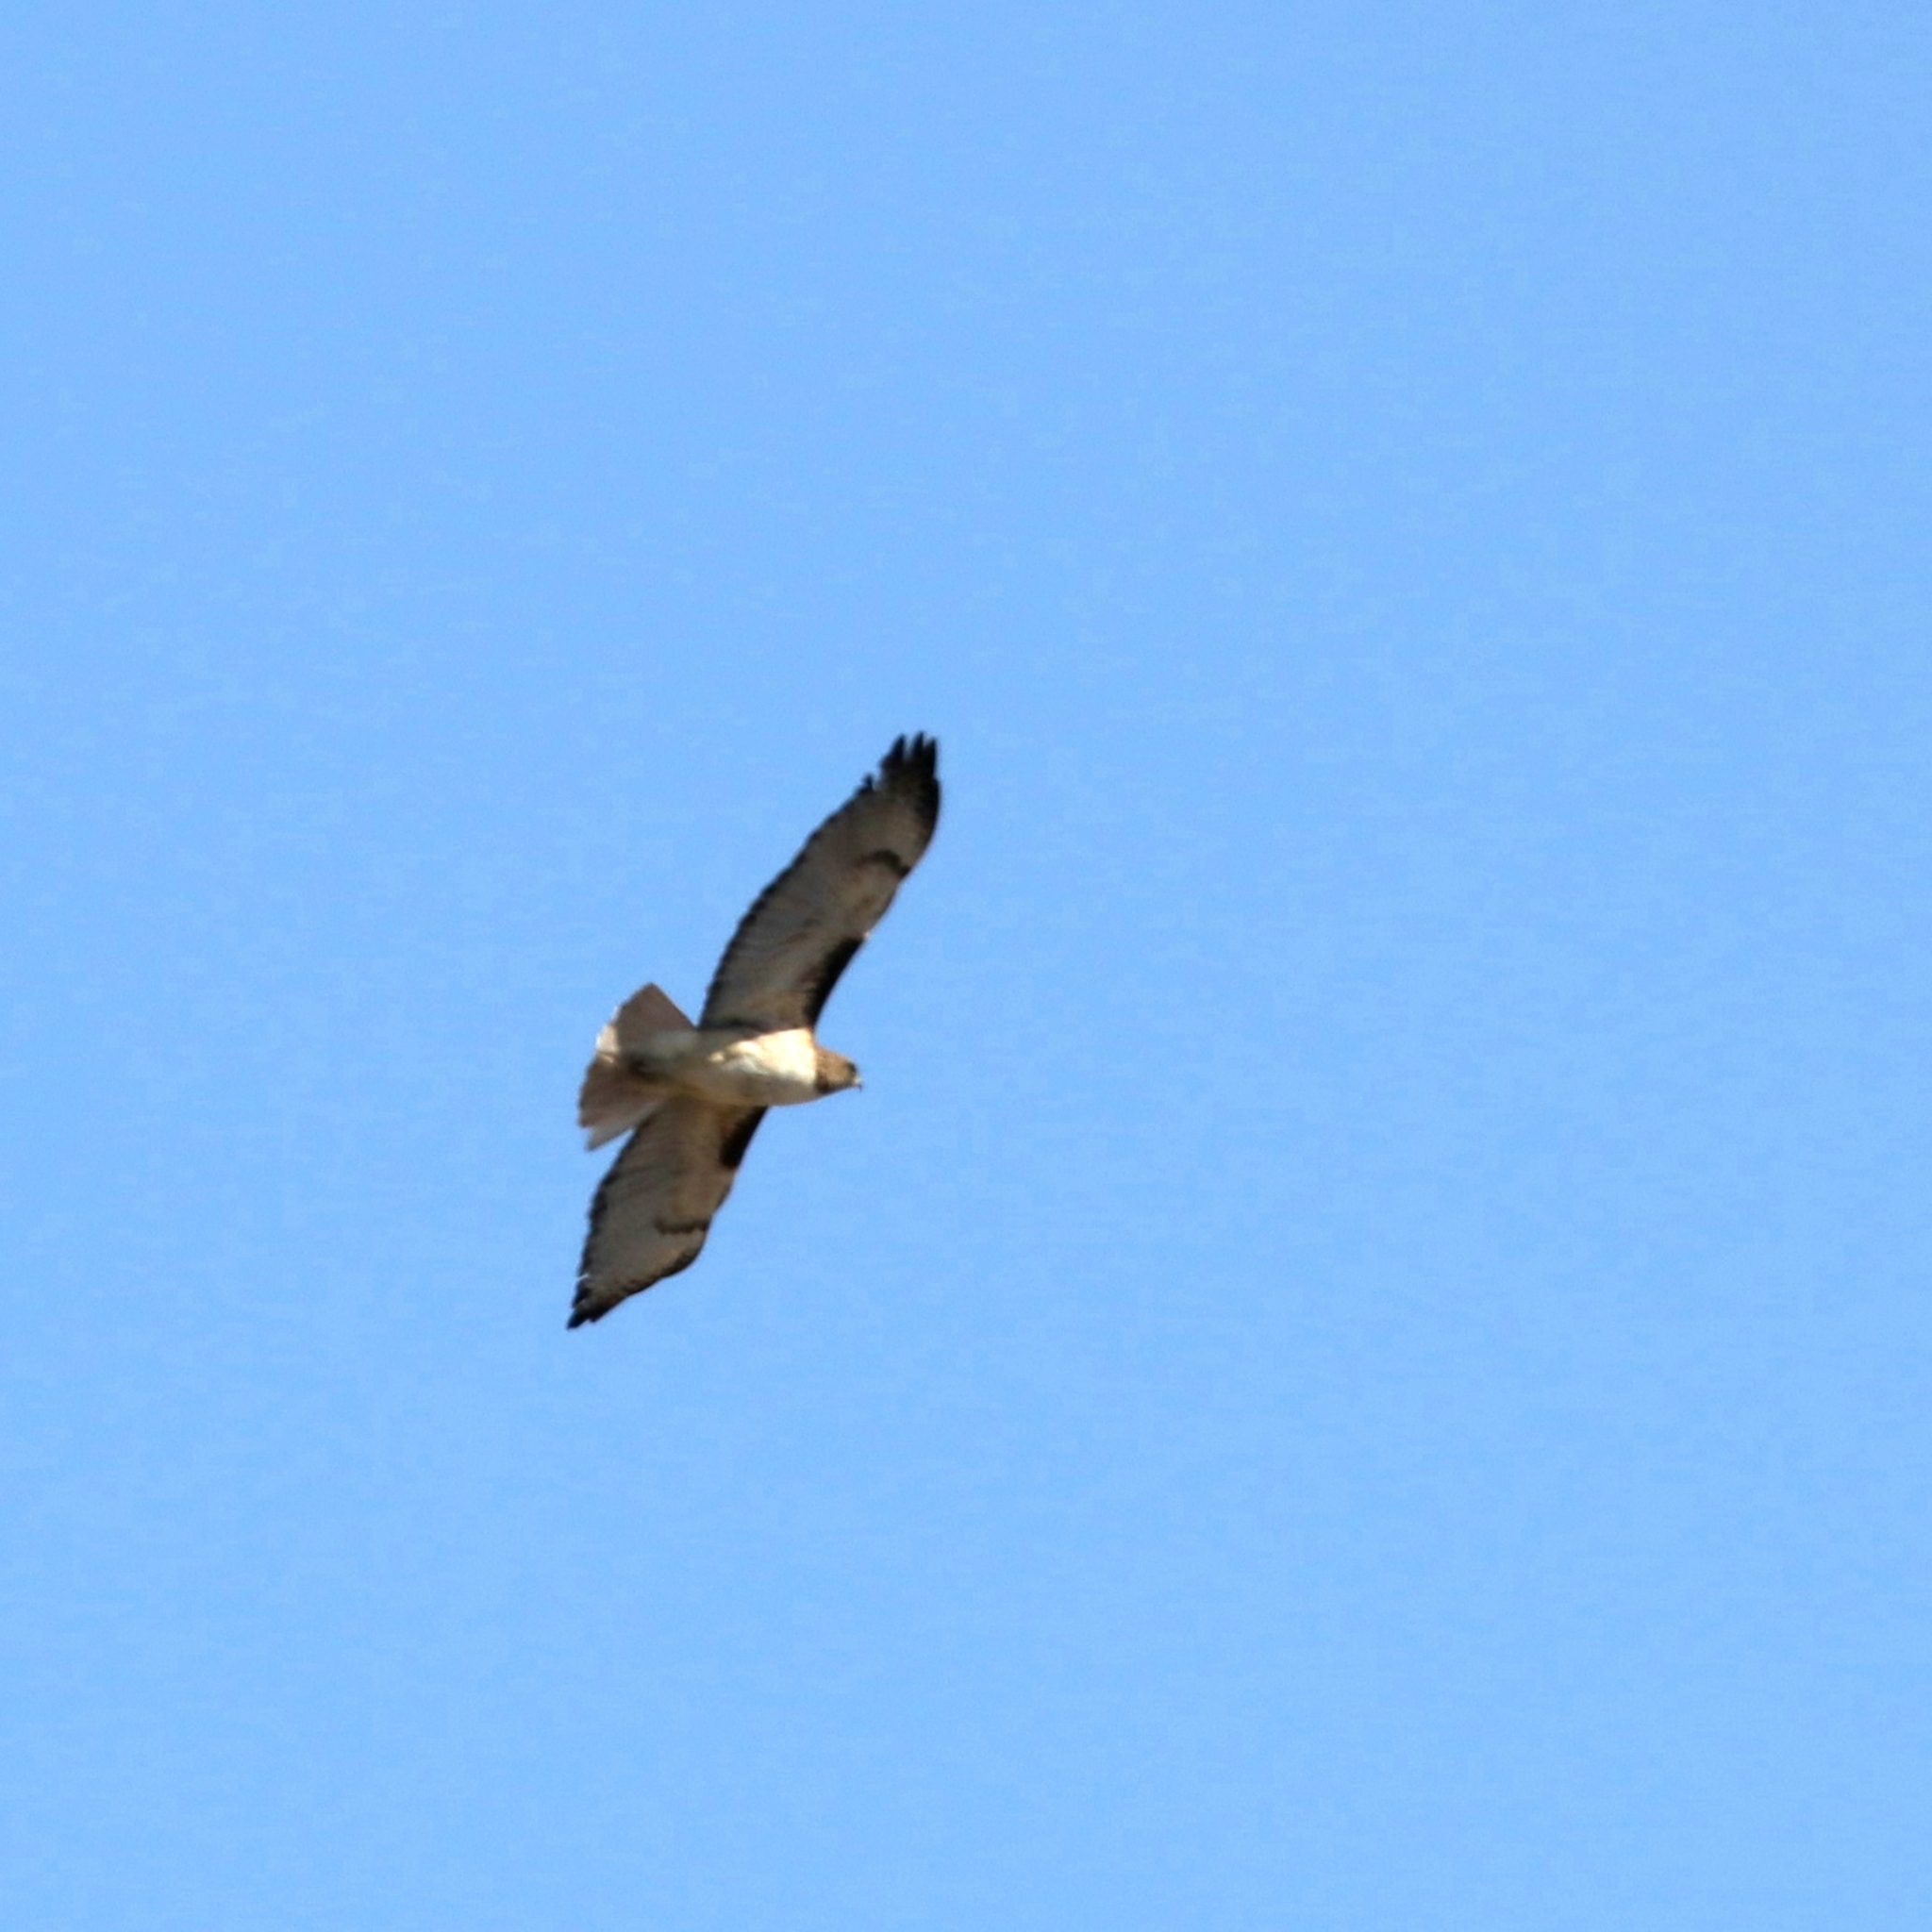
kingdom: Animalia
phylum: Chordata
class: Aves
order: Accipitriformes
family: Accipitridae
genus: Buteo
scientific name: Buteo jamaicensis
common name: Red-tailed hawk
